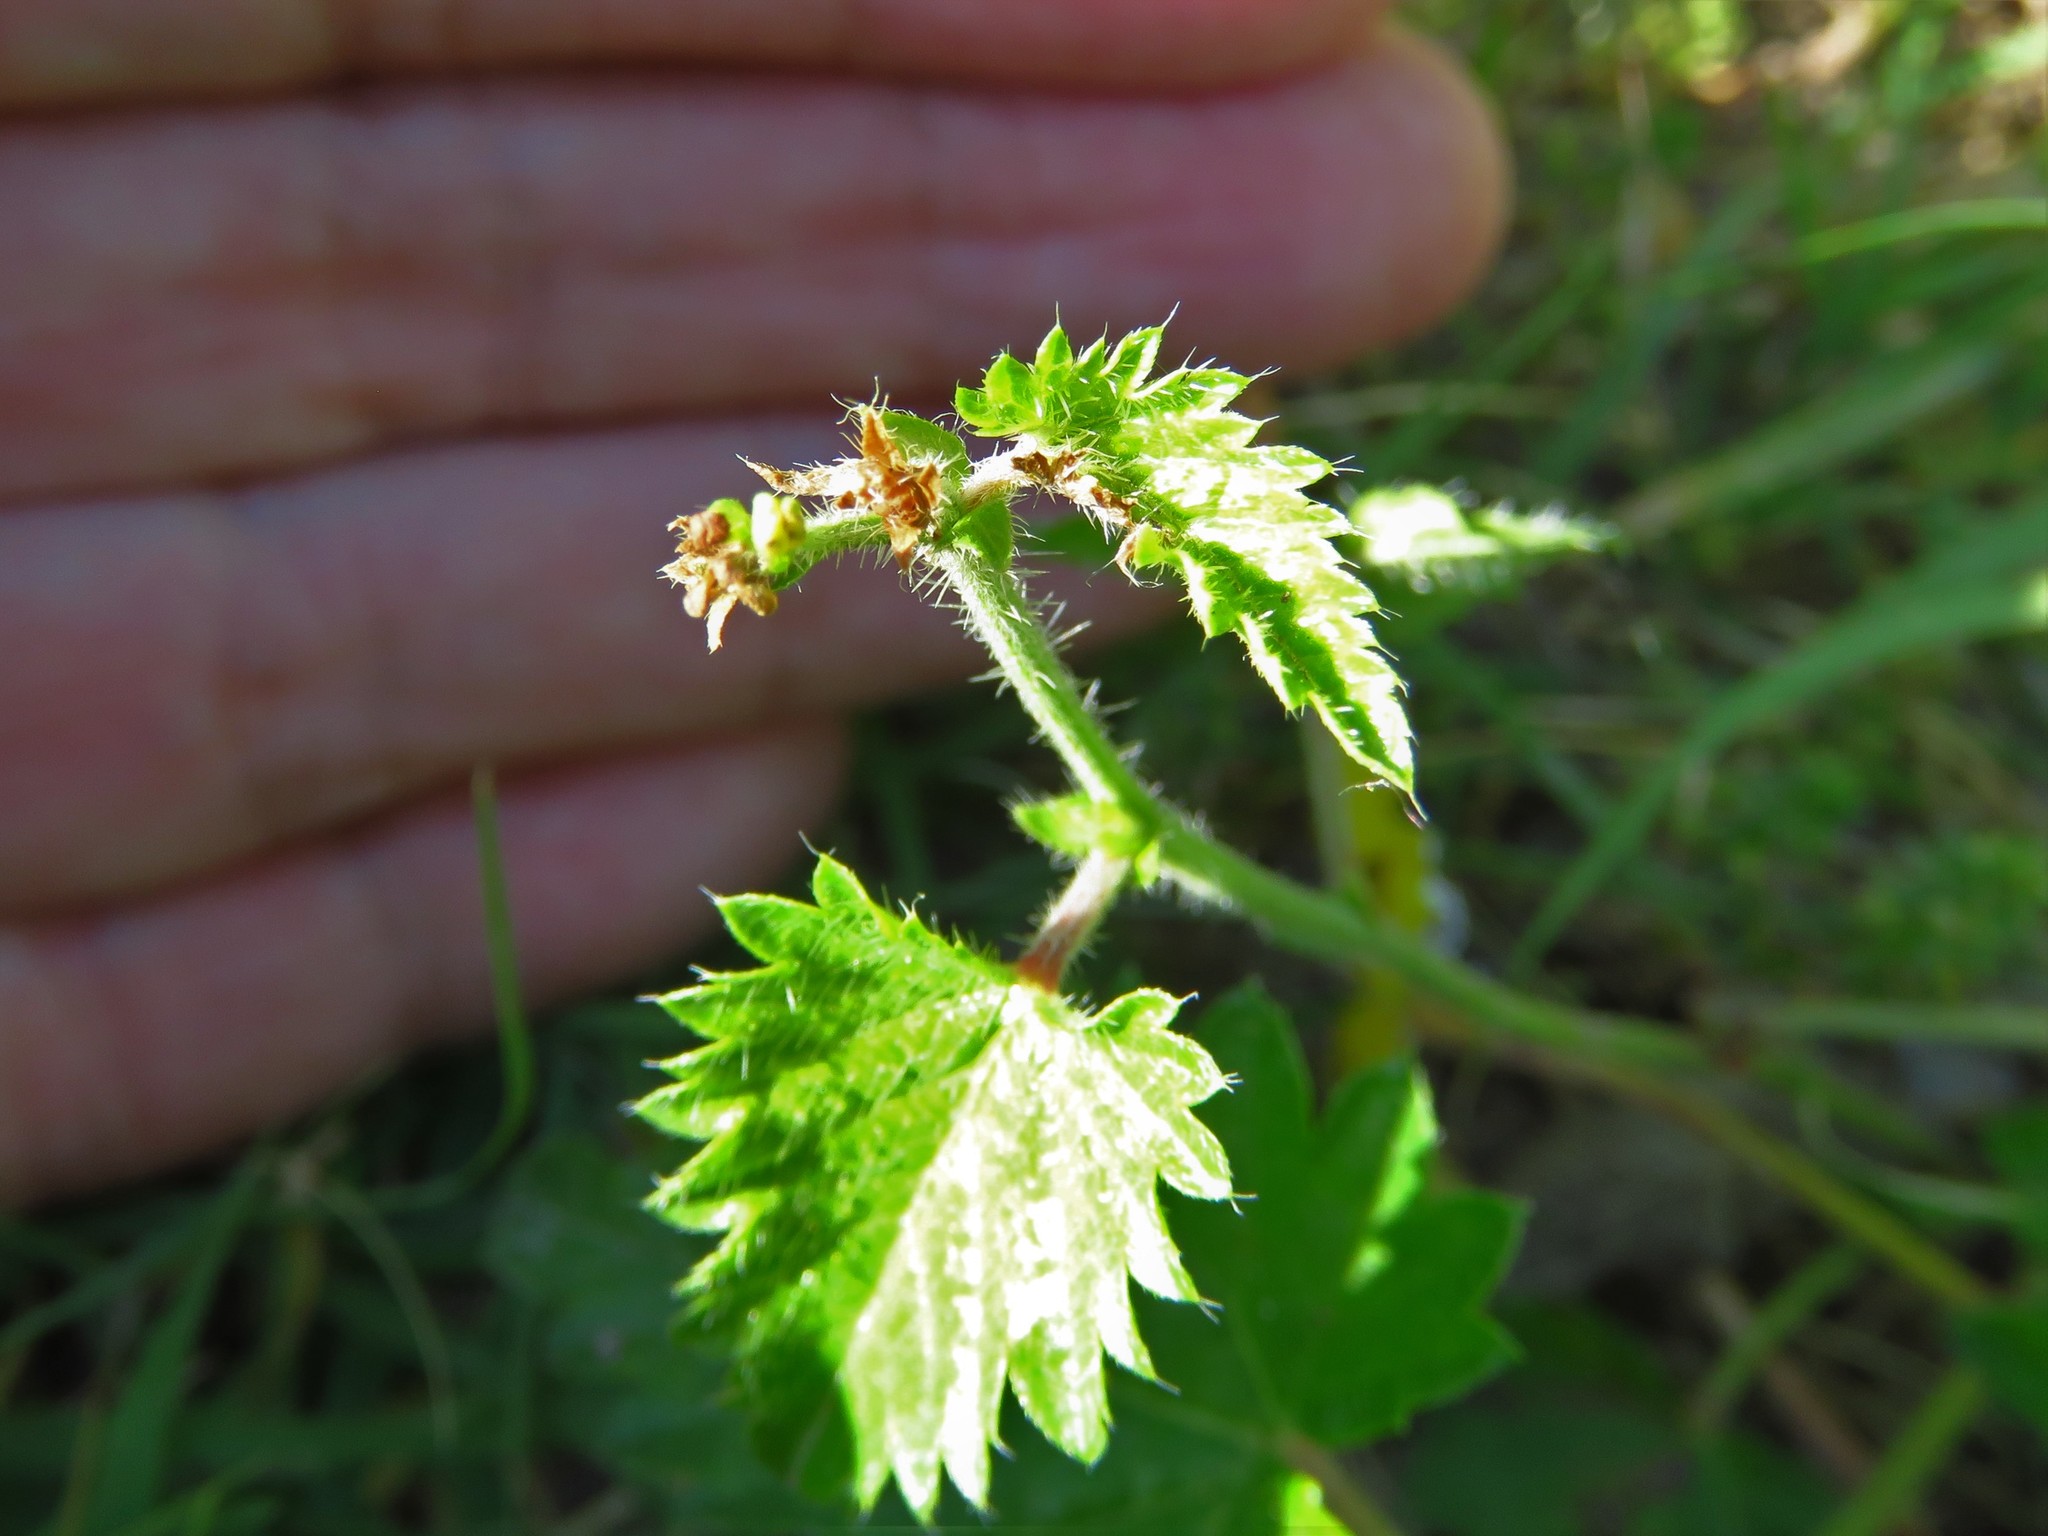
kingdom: Plantae
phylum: Tracheophyta
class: Magnoliopsida
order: Malpighiales
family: Euphorbiaceae
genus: Tragia
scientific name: Tragia ramosa
